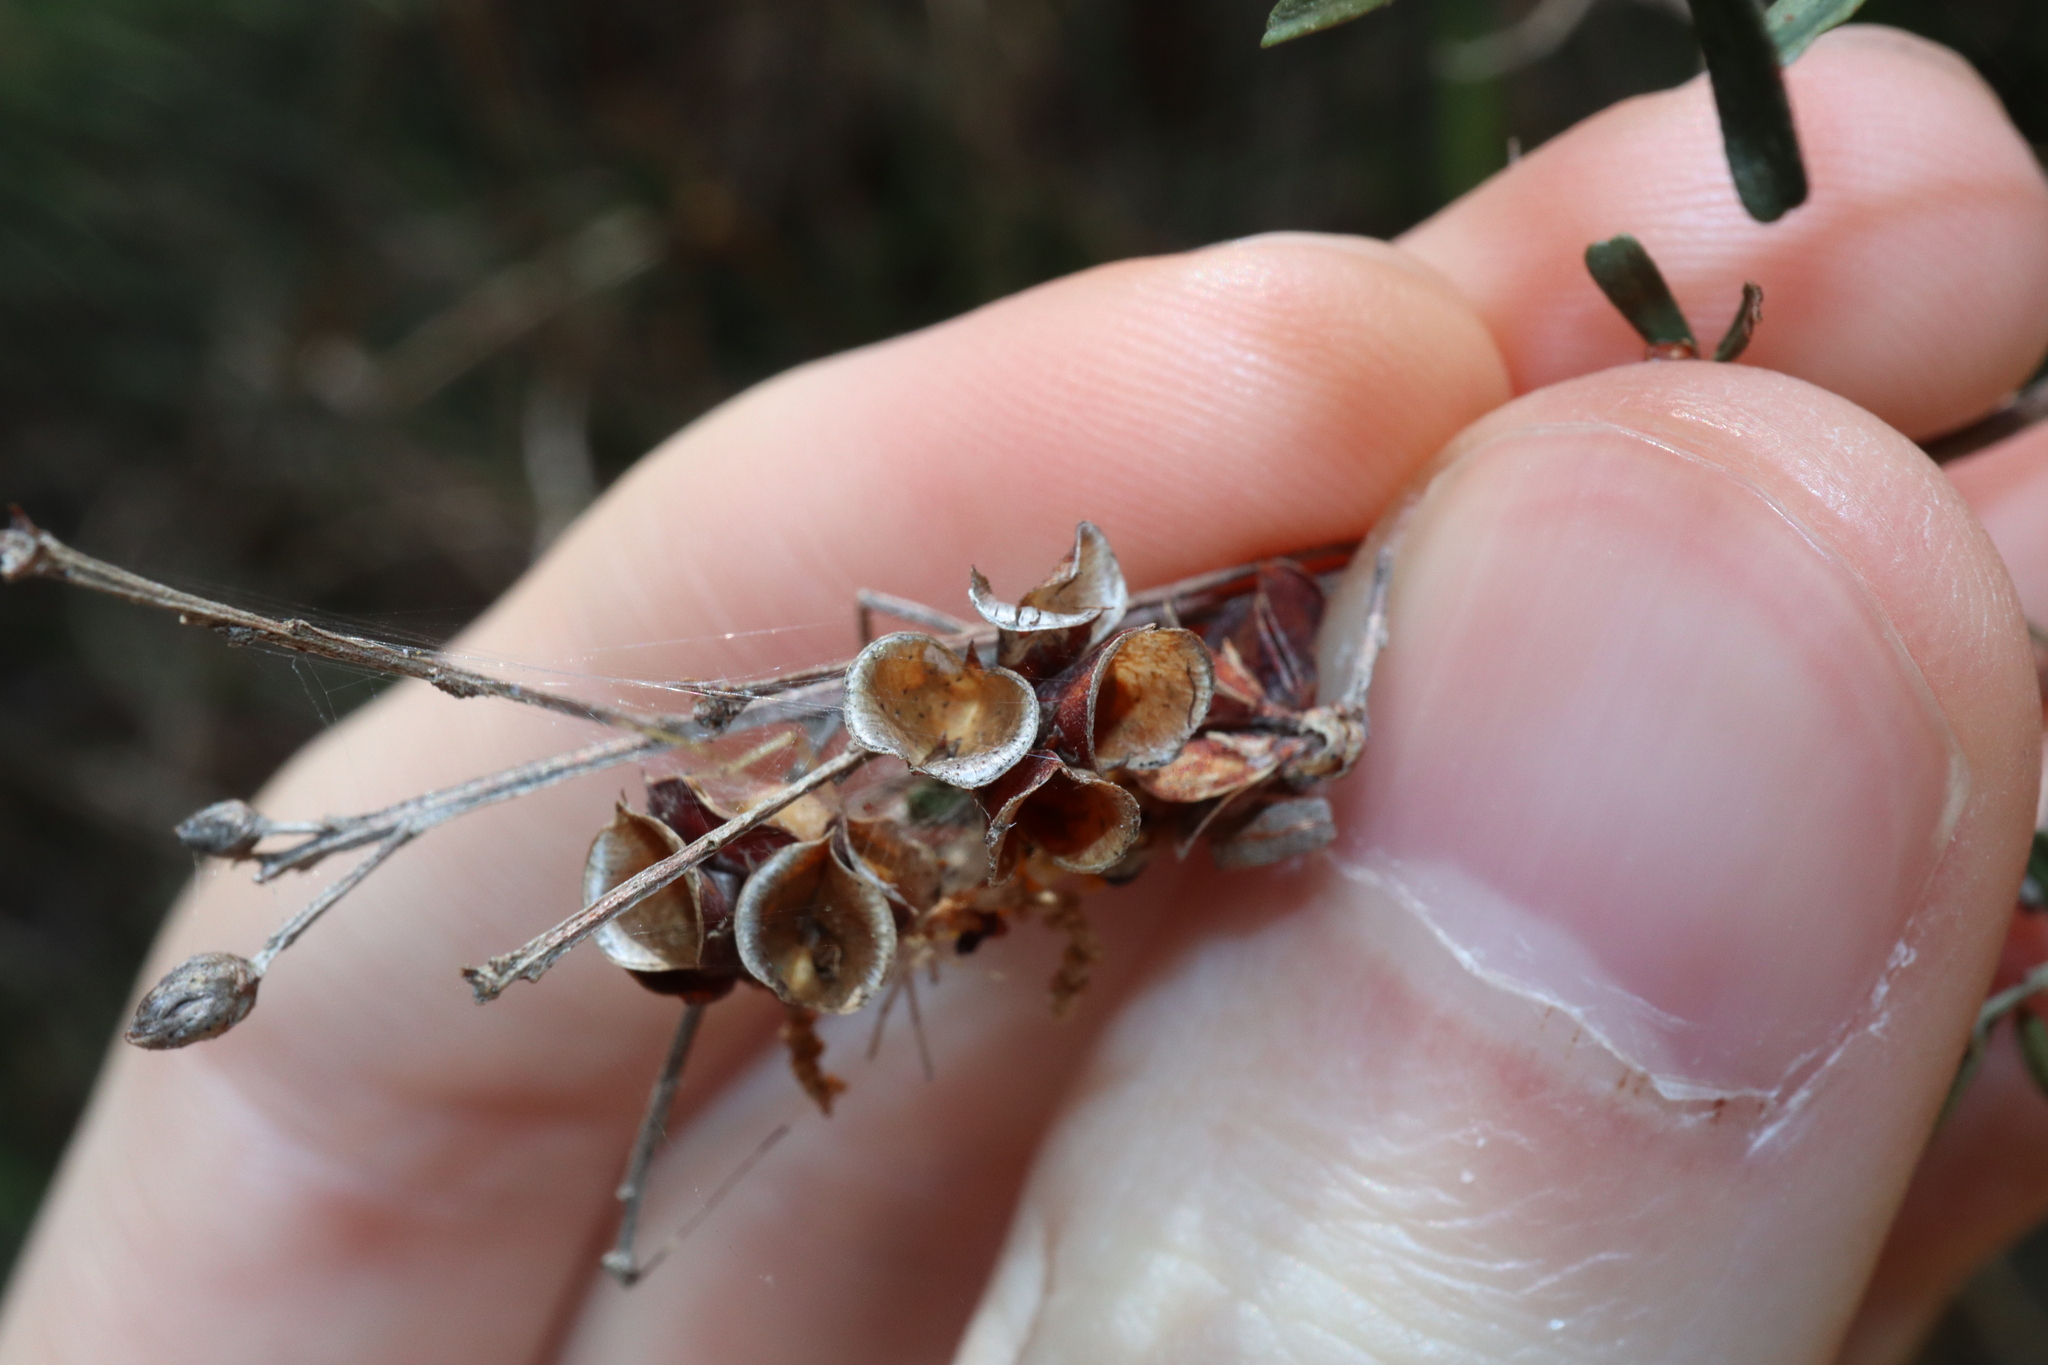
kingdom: Plantae
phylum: Tracheophyta
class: Magnoliopsida
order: Fabales
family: Fabaceae
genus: Pultenaea
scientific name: Pultenaea retusa
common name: Blunt bush-pea
